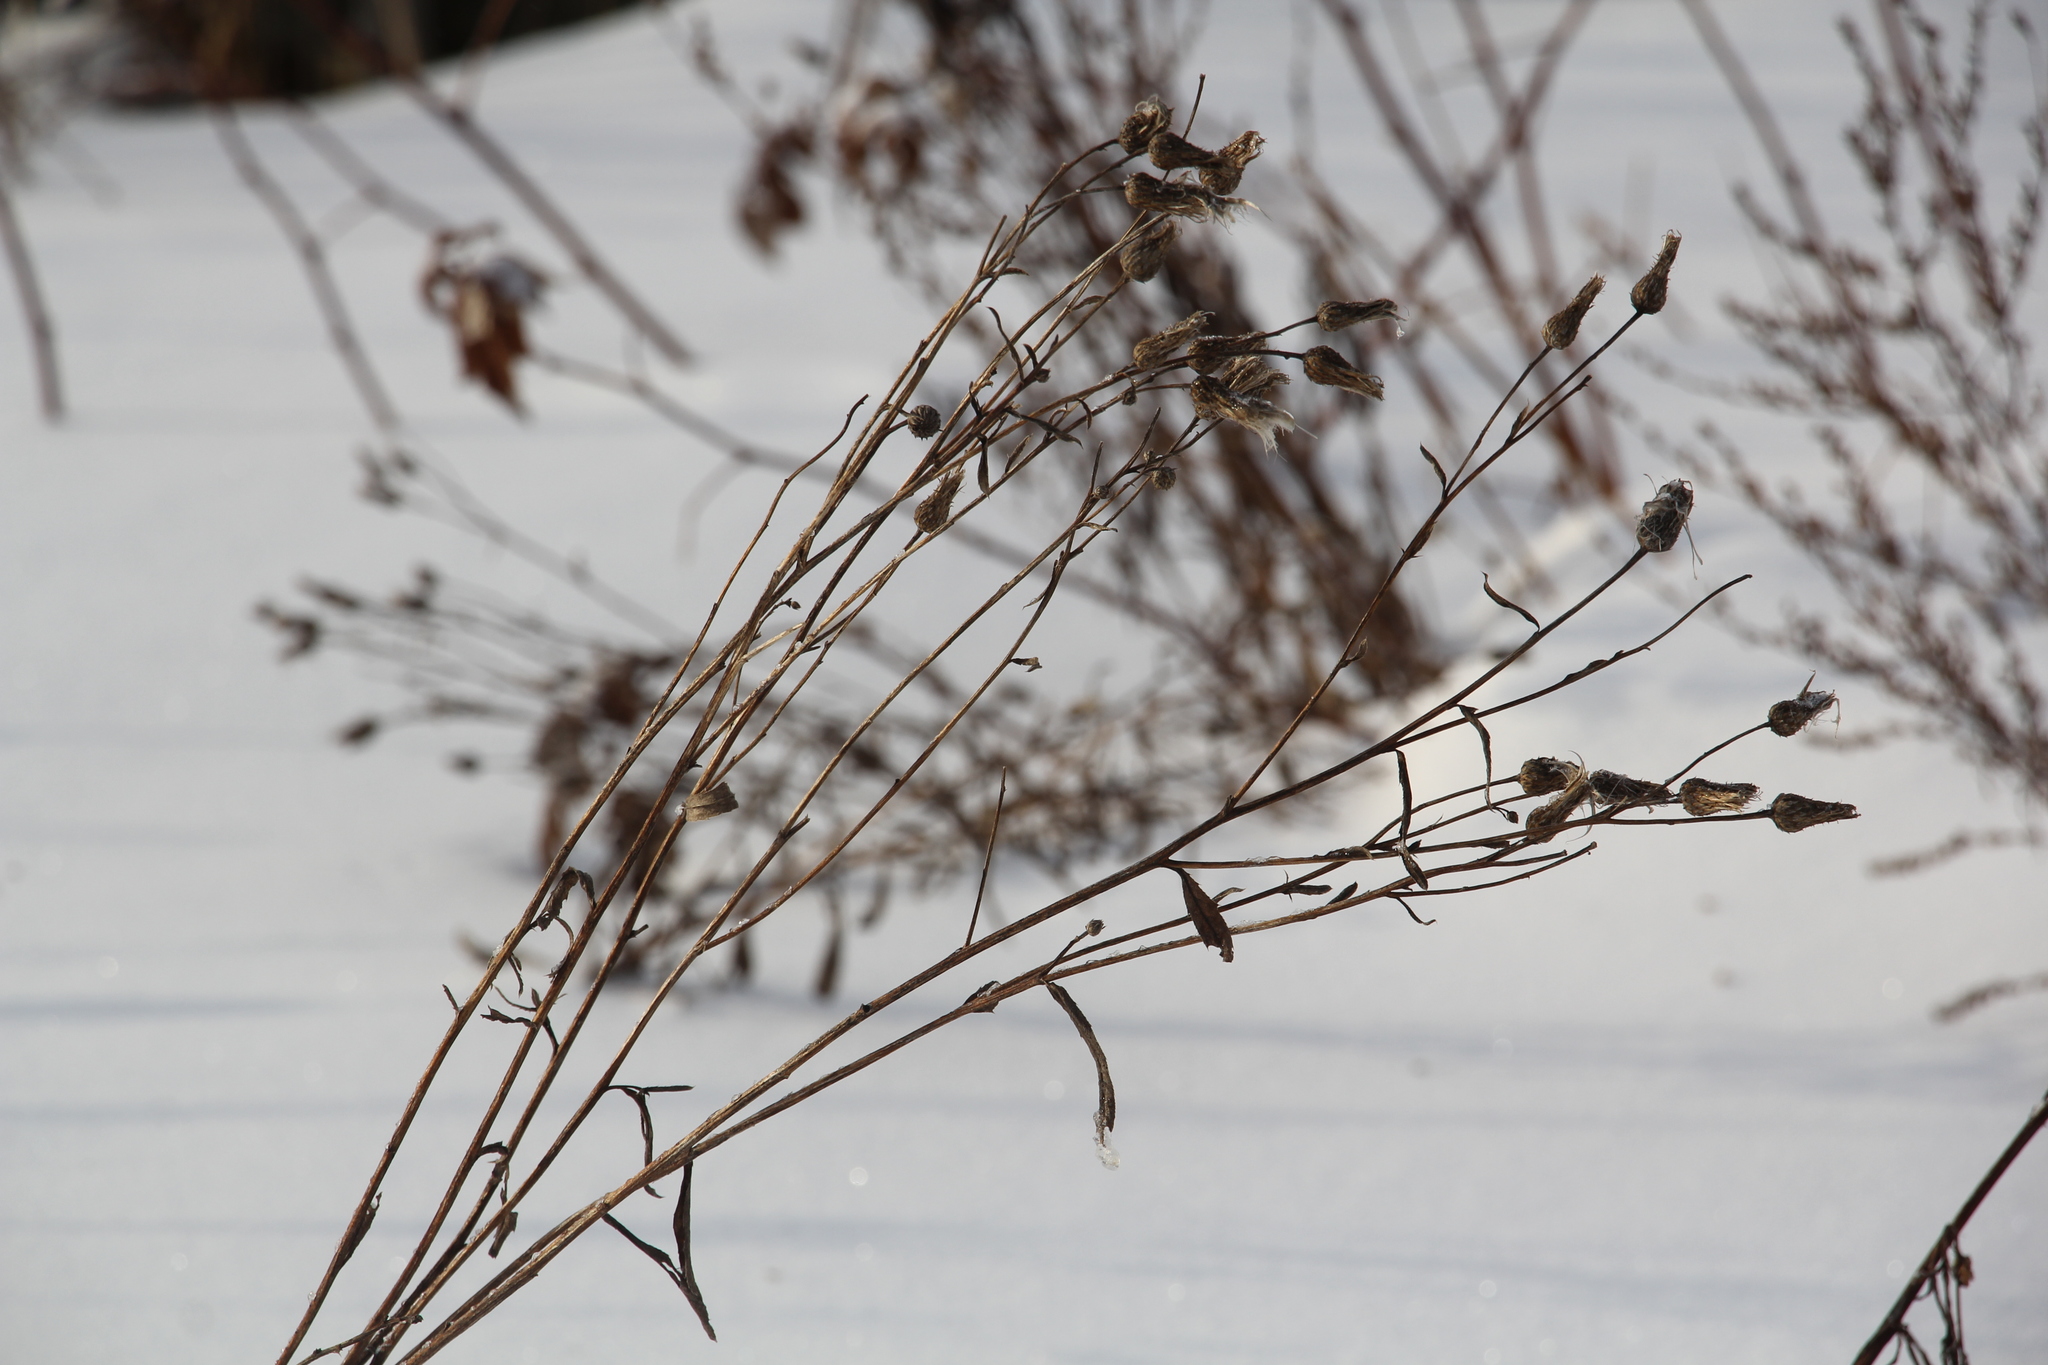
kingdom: Plantae
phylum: Tracheophyta
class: Magnoliopsida
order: Asterales
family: Asteraceae
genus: Cirsium
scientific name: Cirsium arvense
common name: Creeping thistle
